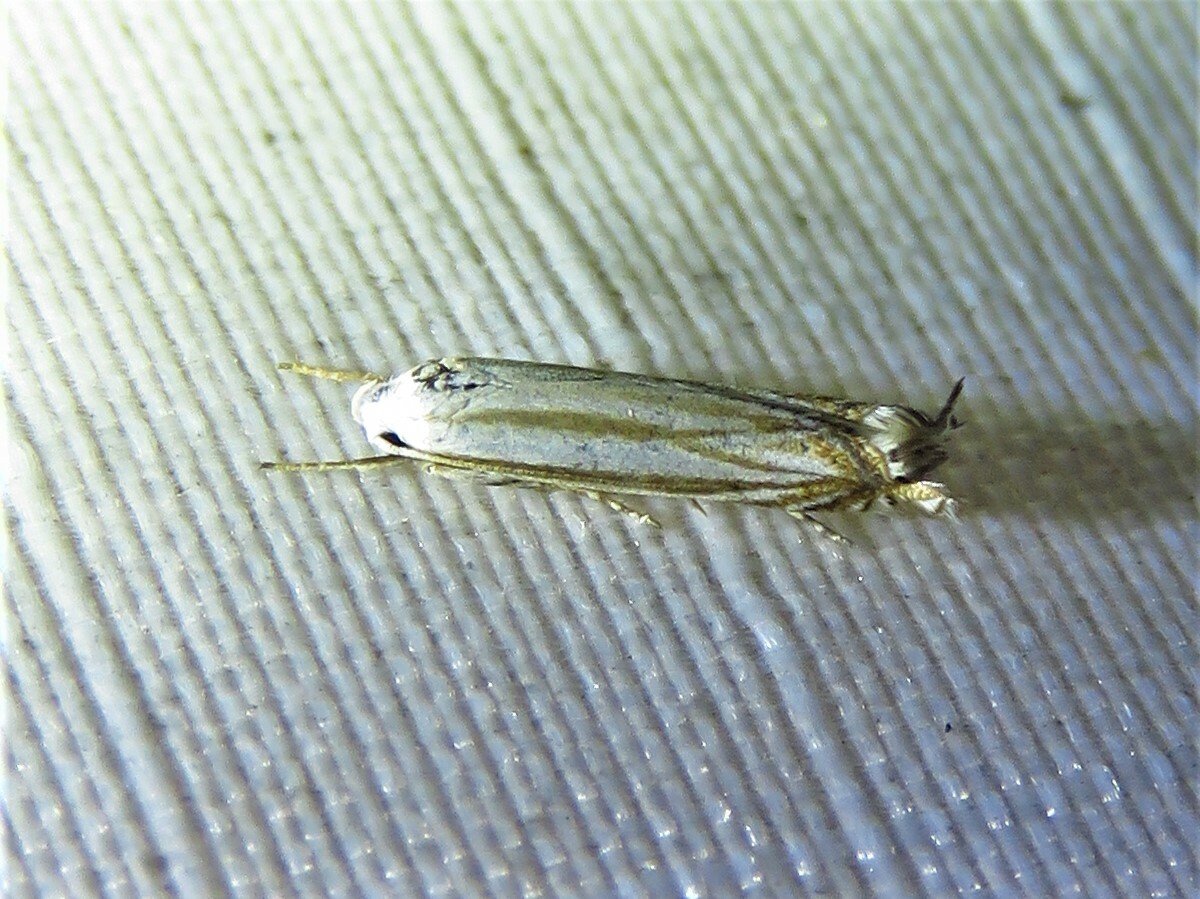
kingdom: Animalia
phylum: Arthropoda
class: Insecta
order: Lepidoptera
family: Gelechiidae
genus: Polyhymno
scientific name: Polyhymno luteostrigella
